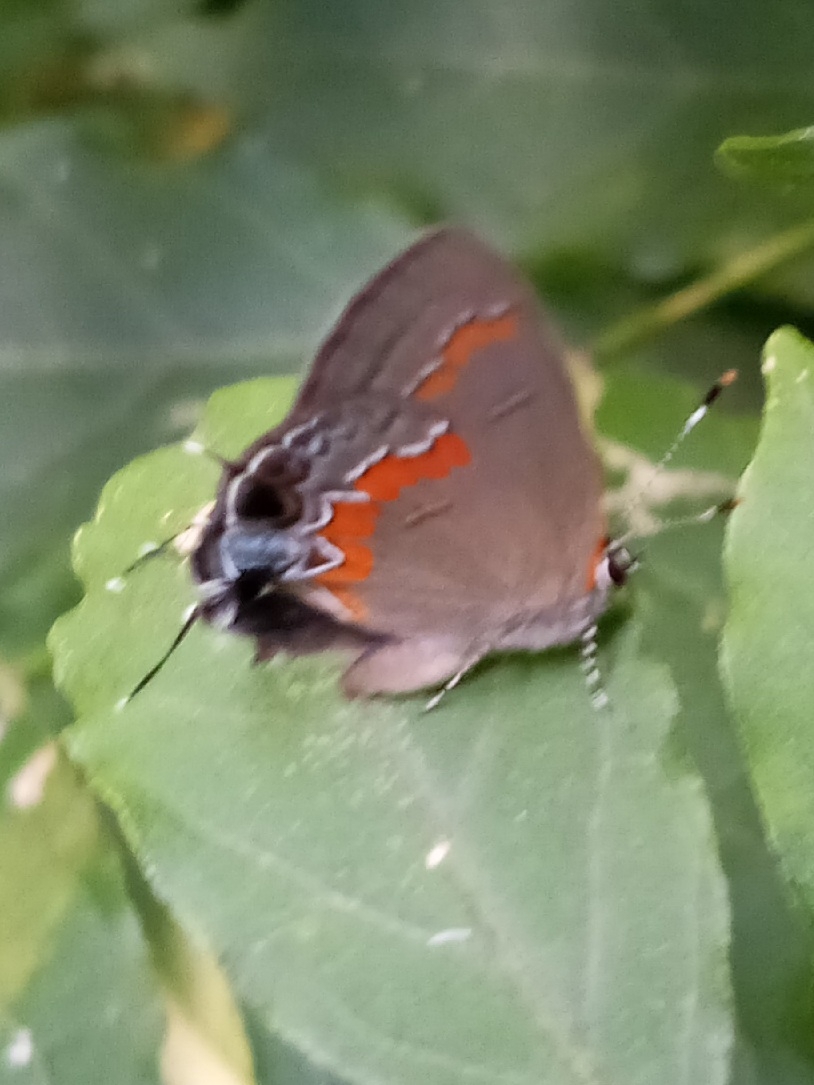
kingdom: Animalia
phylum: Arthropoda
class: Insecta
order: Lepidoptera
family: Lycaenidae
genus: Calycopis
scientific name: Calycopis cecrops
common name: Red-banded hairstreak
